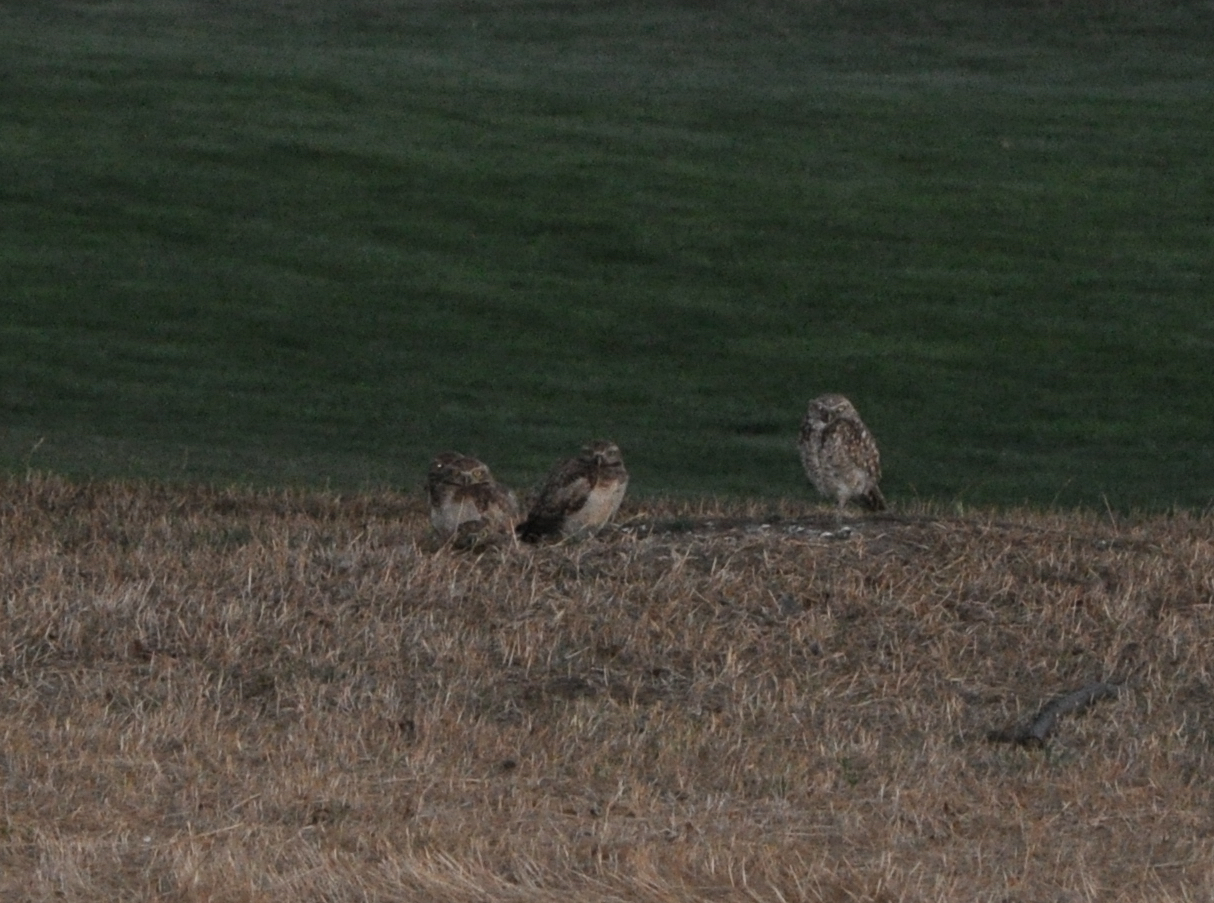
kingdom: Animalia
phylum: Chordata
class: Aves
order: Strigiformes
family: Strigidae
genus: Athene
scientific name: Athene cunicularia
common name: Burrowing owl
